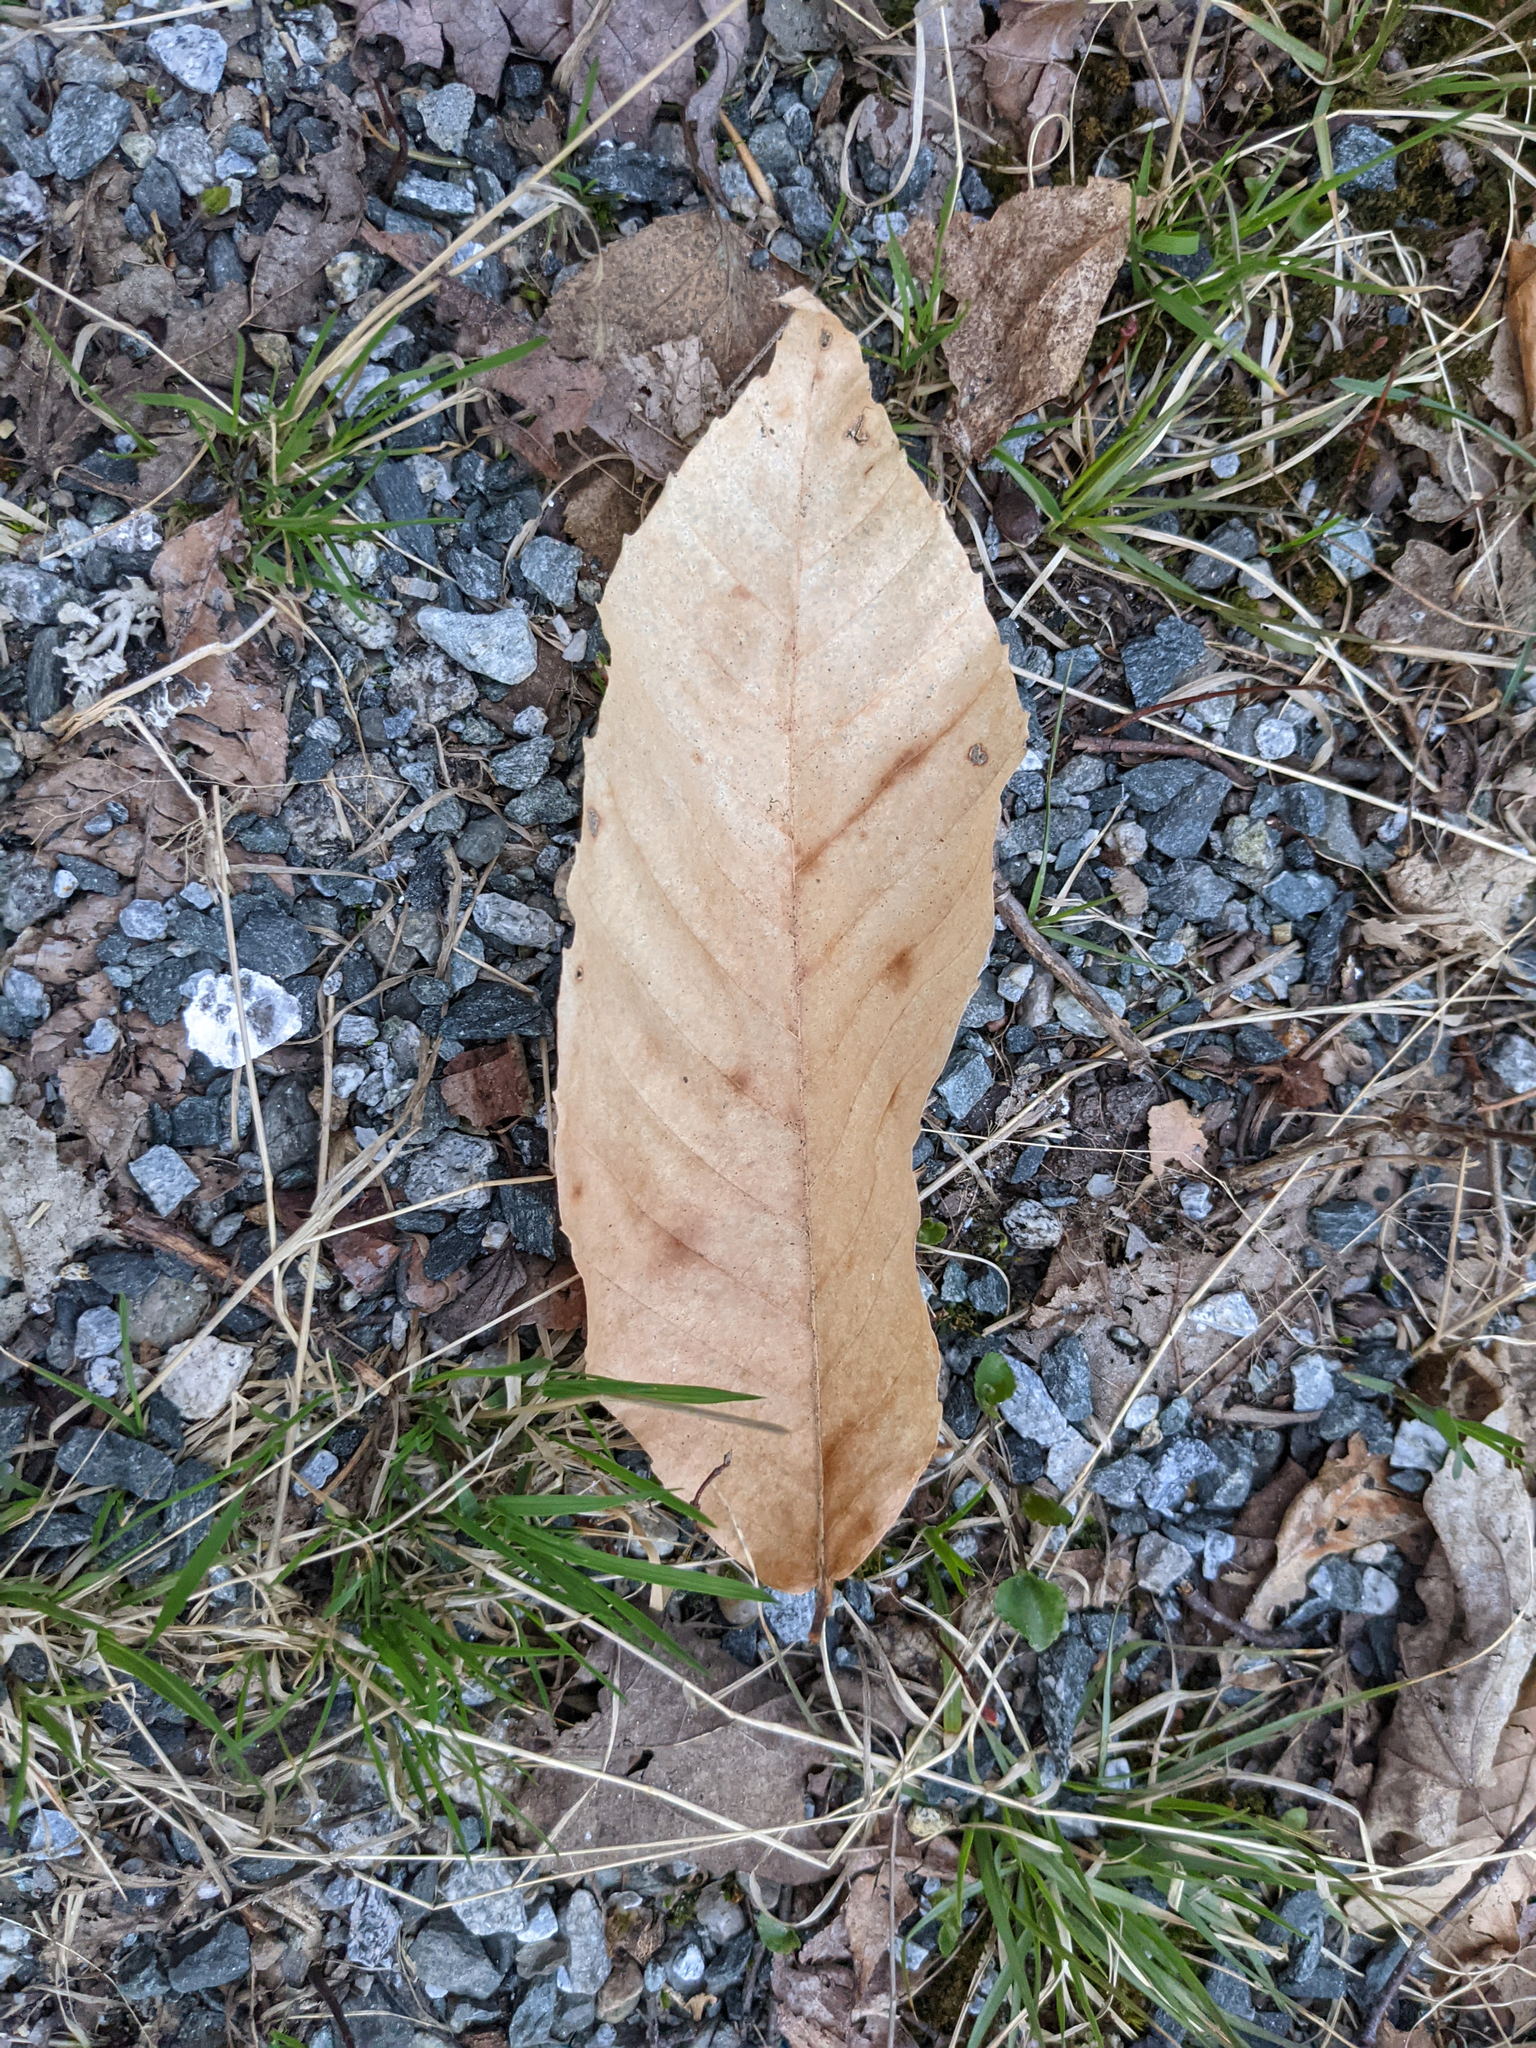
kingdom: Plantae
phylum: Tracheophyta
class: Magnoliopsida
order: Fagales
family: Fagaceae
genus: Fagus
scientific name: Fagus grandifolia
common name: American beech
